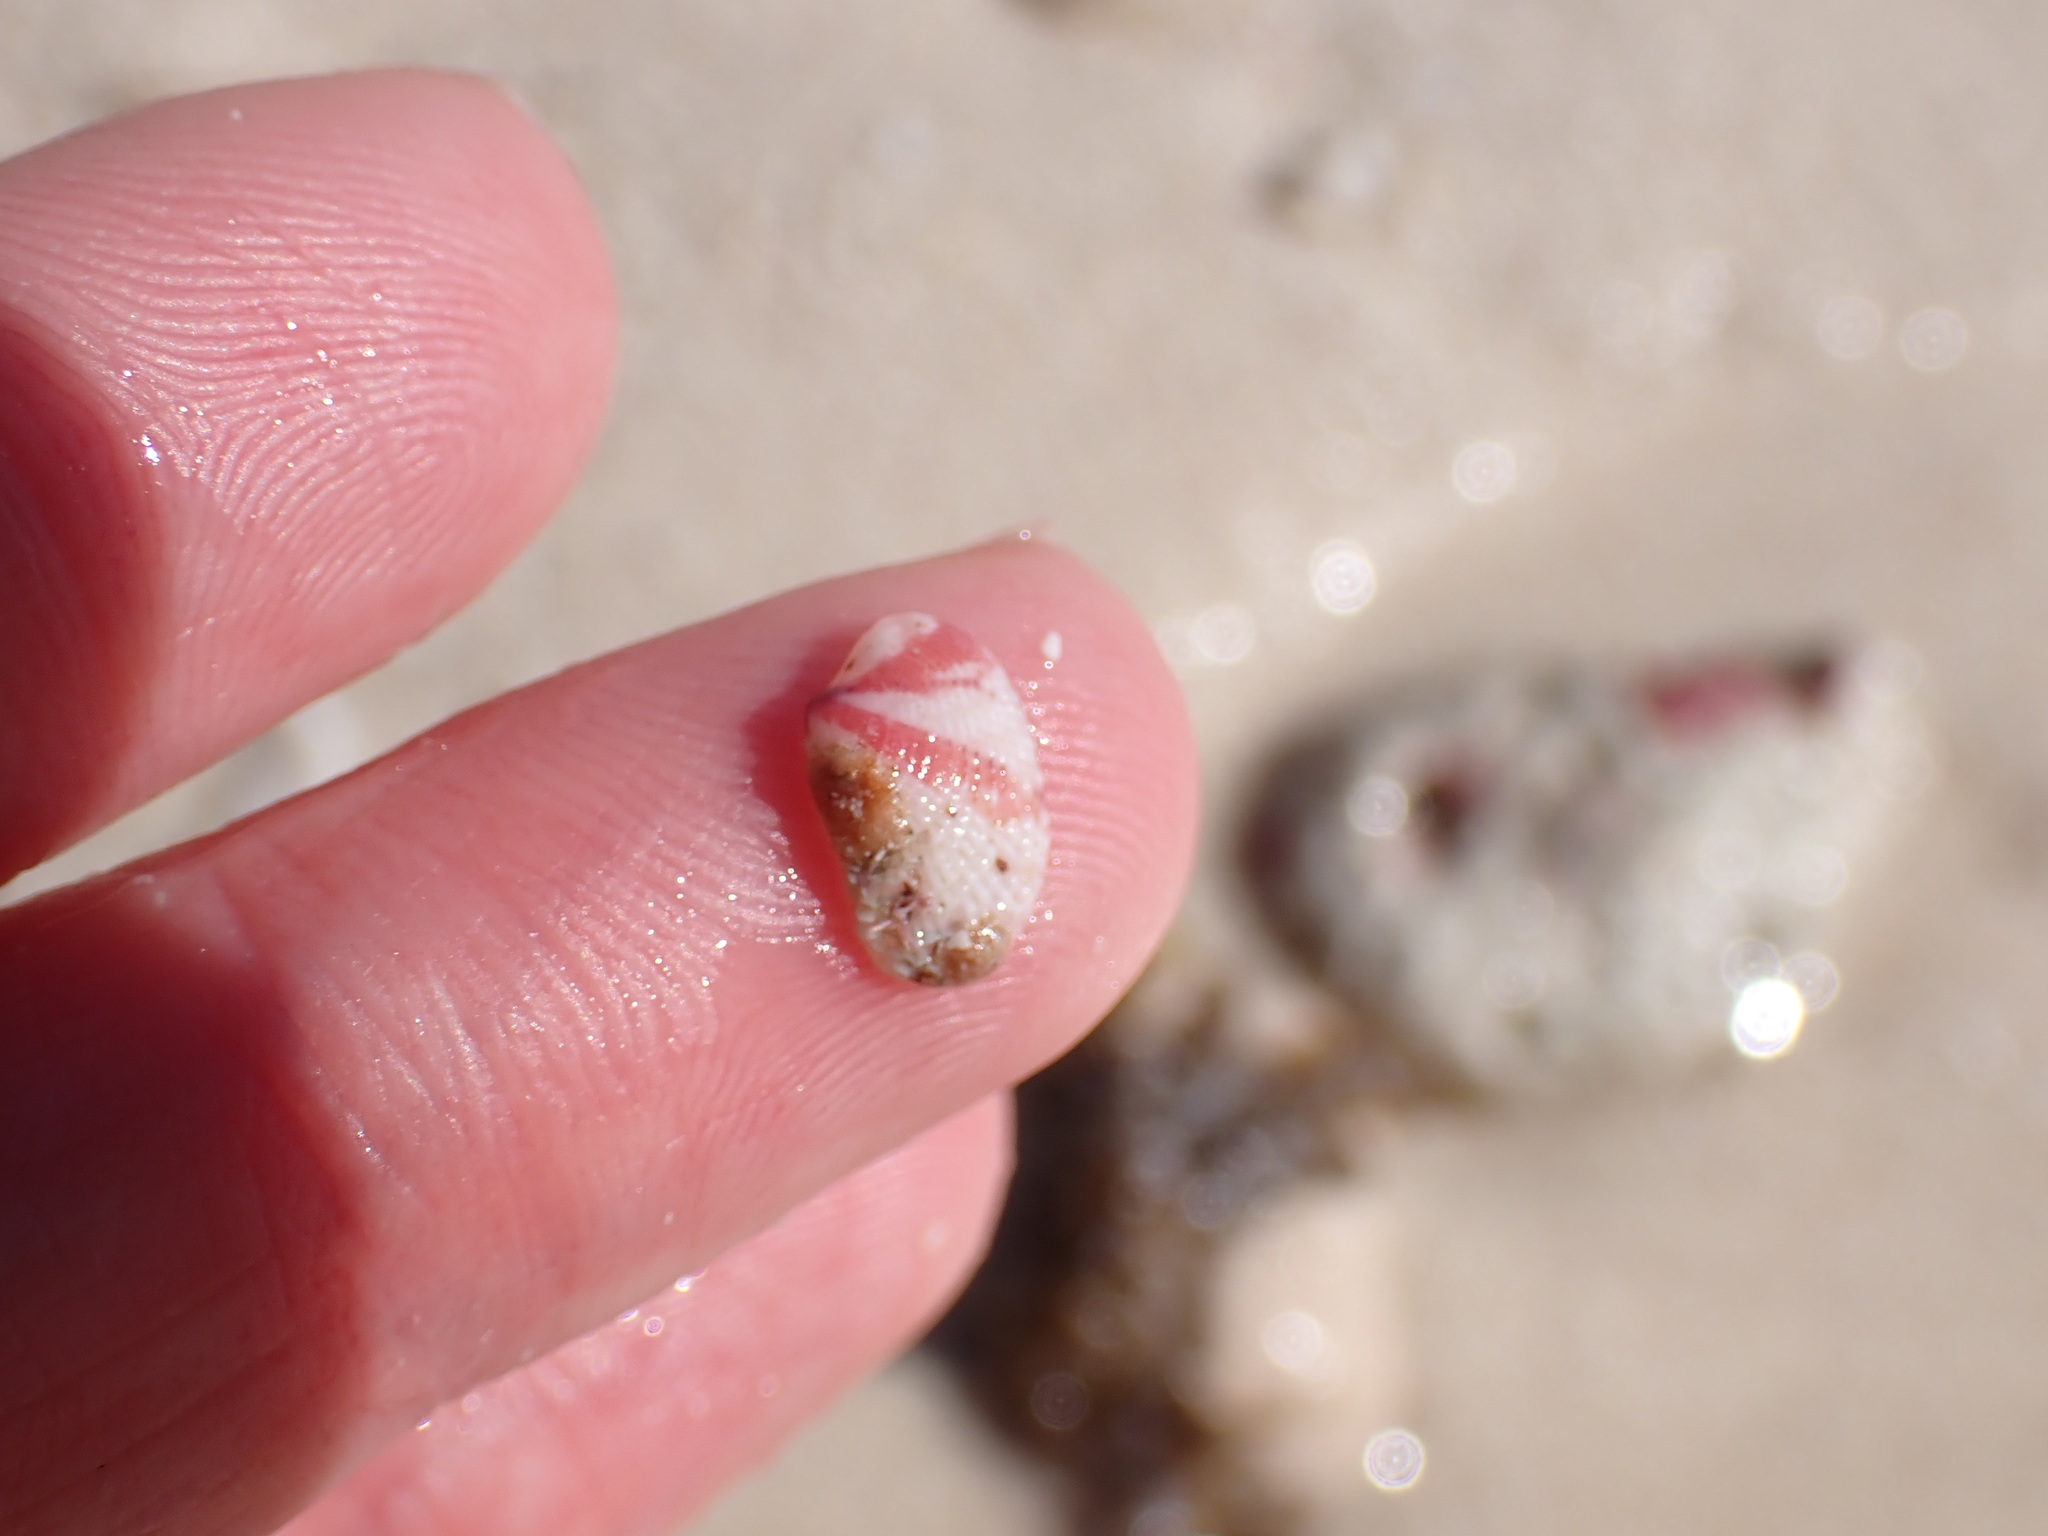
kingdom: Animalia
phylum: Mollusca
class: Bivalvia
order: Venerida
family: Veneridae
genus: Chioneryx
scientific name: Chioneryx pygmaea
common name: White pygmy venus
